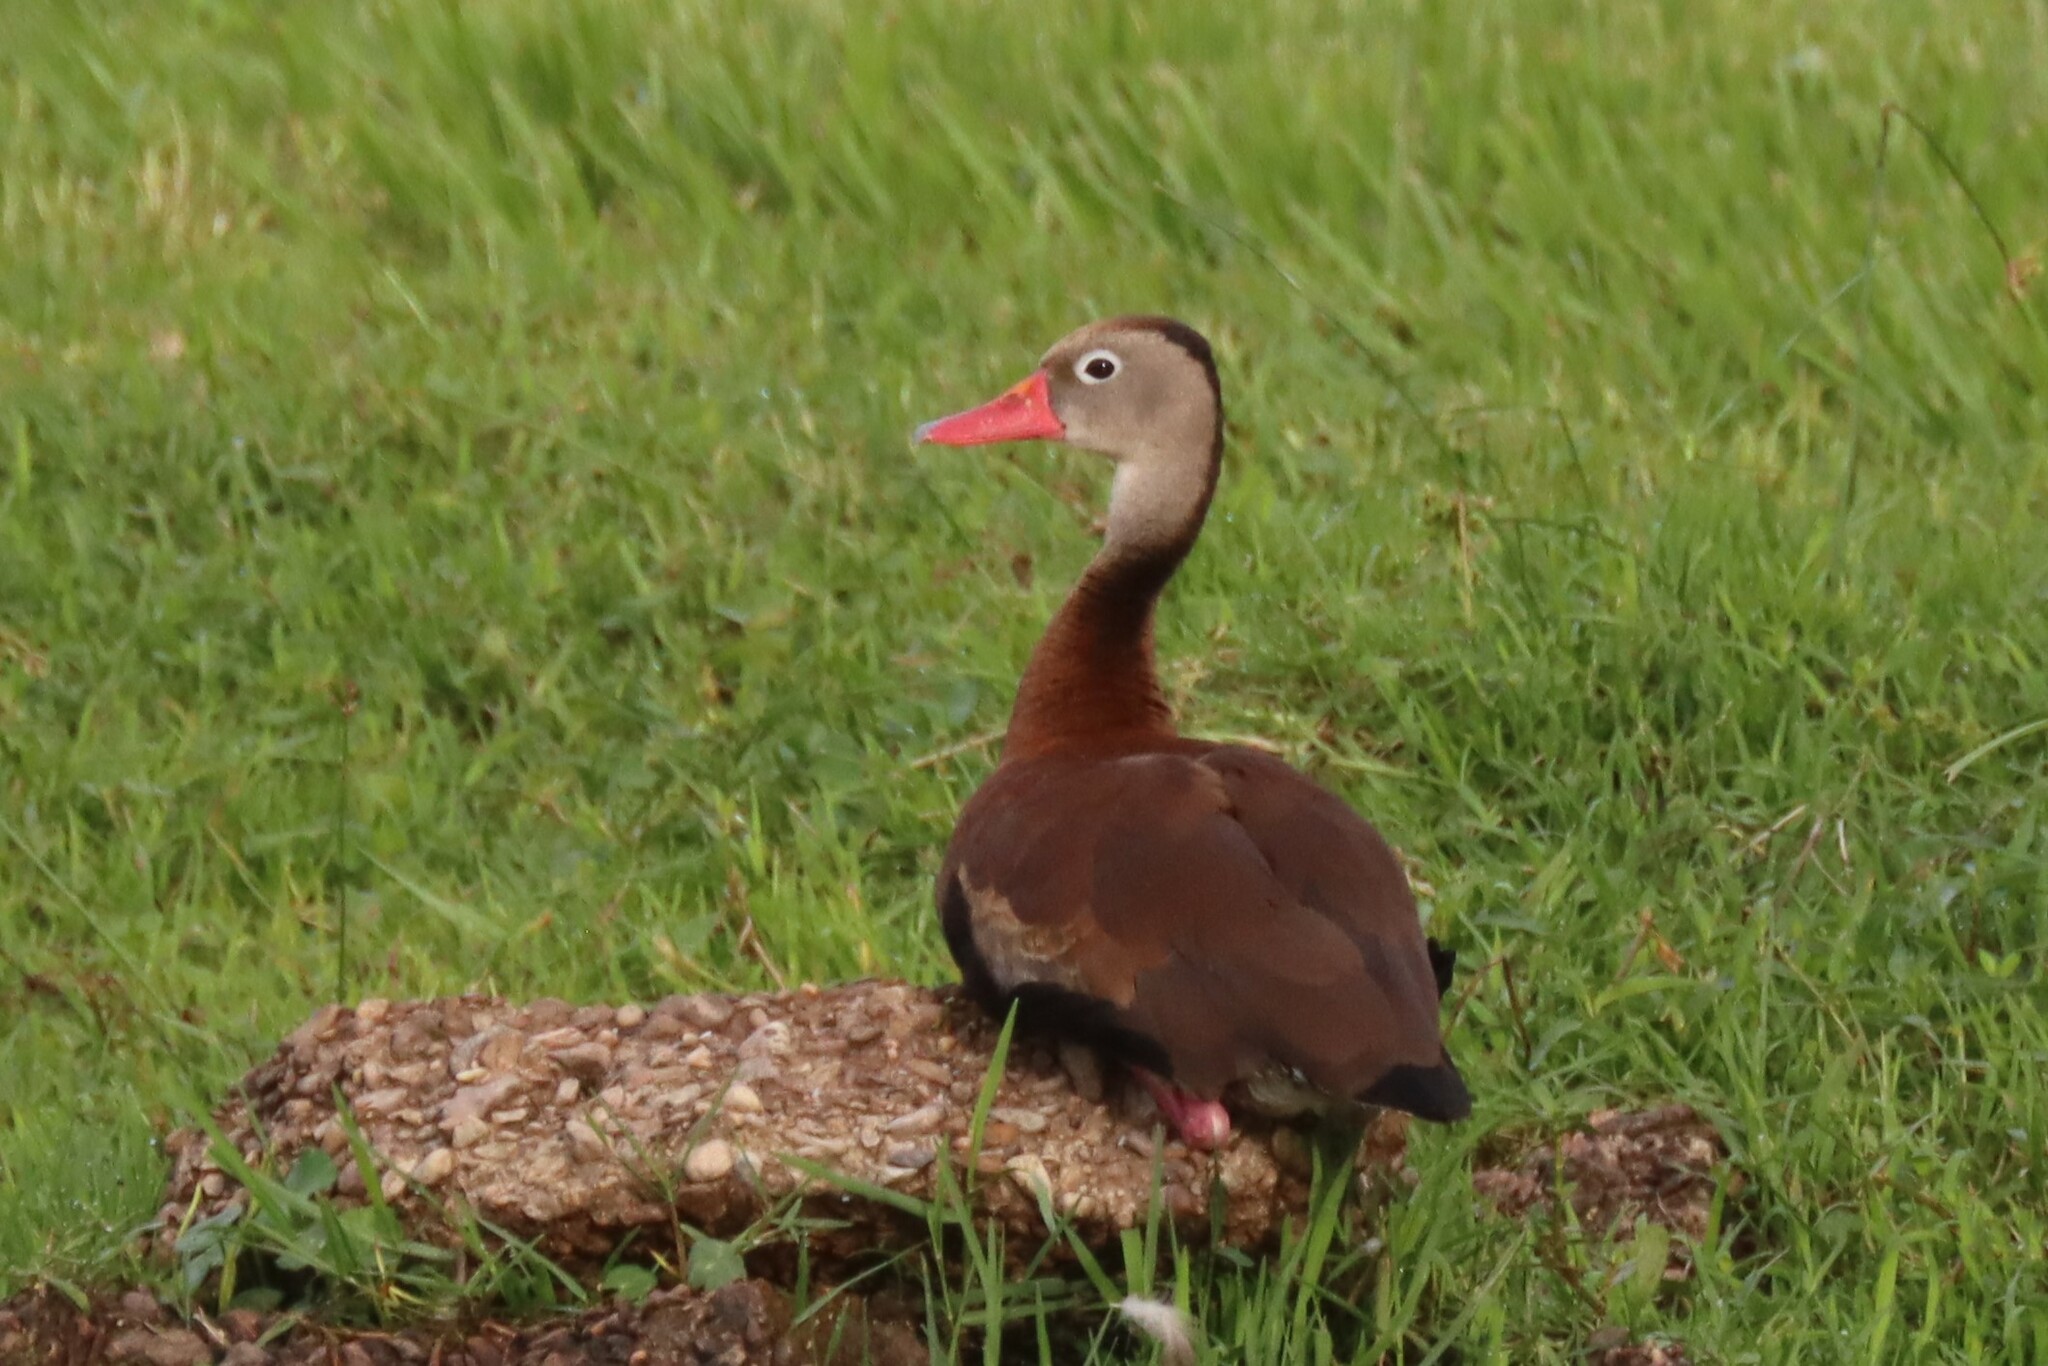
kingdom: Animalia
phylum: Chordata
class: Aves
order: Anseriformes
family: Anatidae
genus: Dendrocygna
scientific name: Dendrocygna autumnalis
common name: Black-bellied whistling duck
